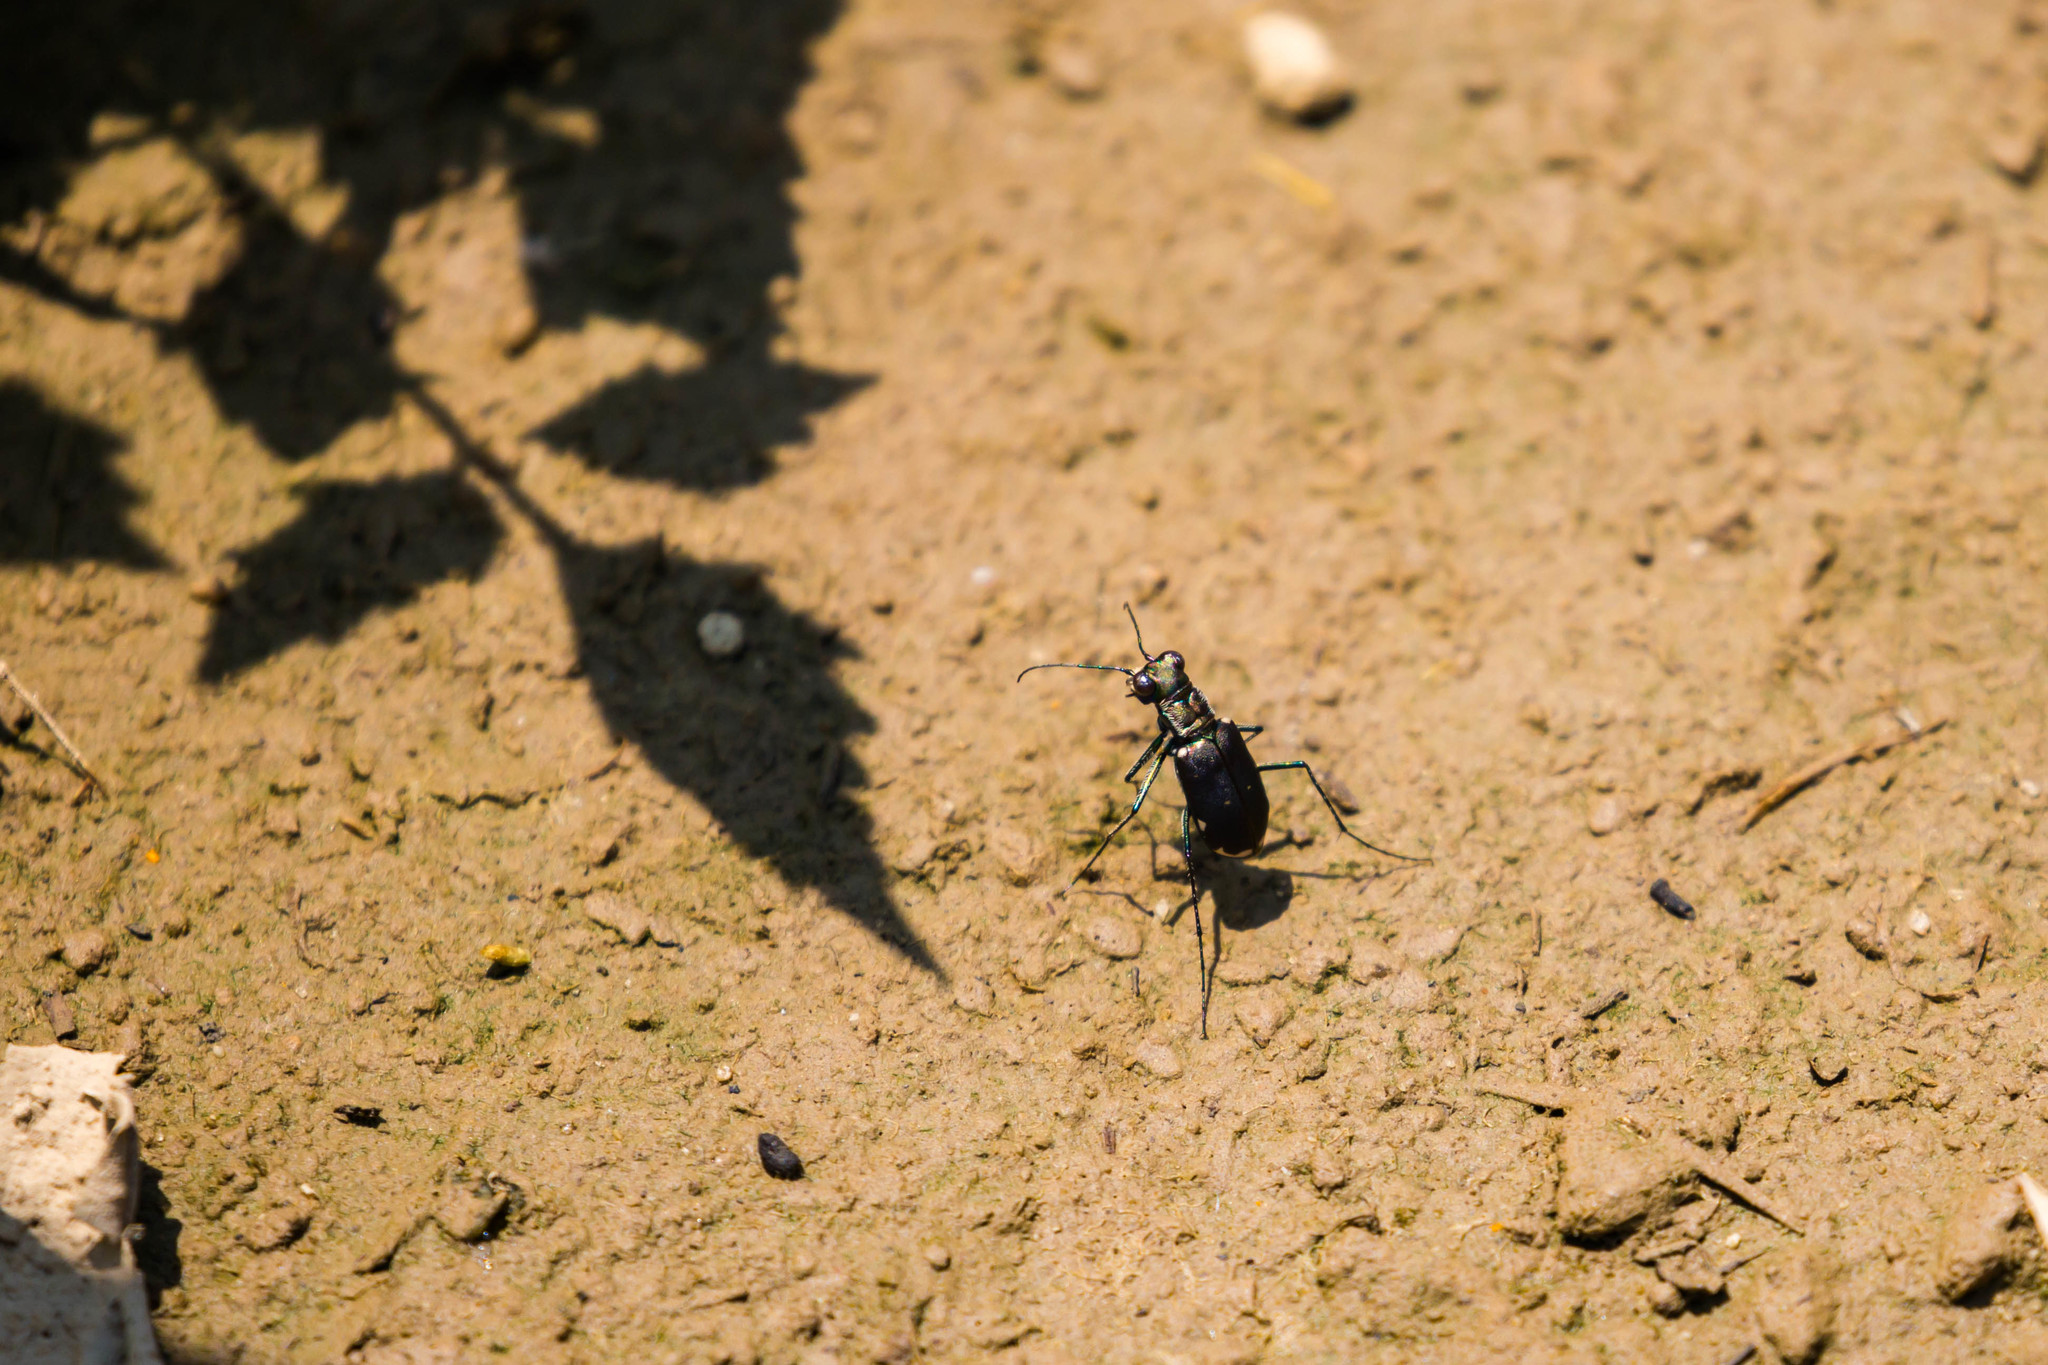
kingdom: Animalia
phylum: Arthropoda
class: Insecta
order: Coleoptera
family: Carabidae
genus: Cicindela
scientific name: Cicindela rufiventris
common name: Eastern red-bellied tiger beetle
